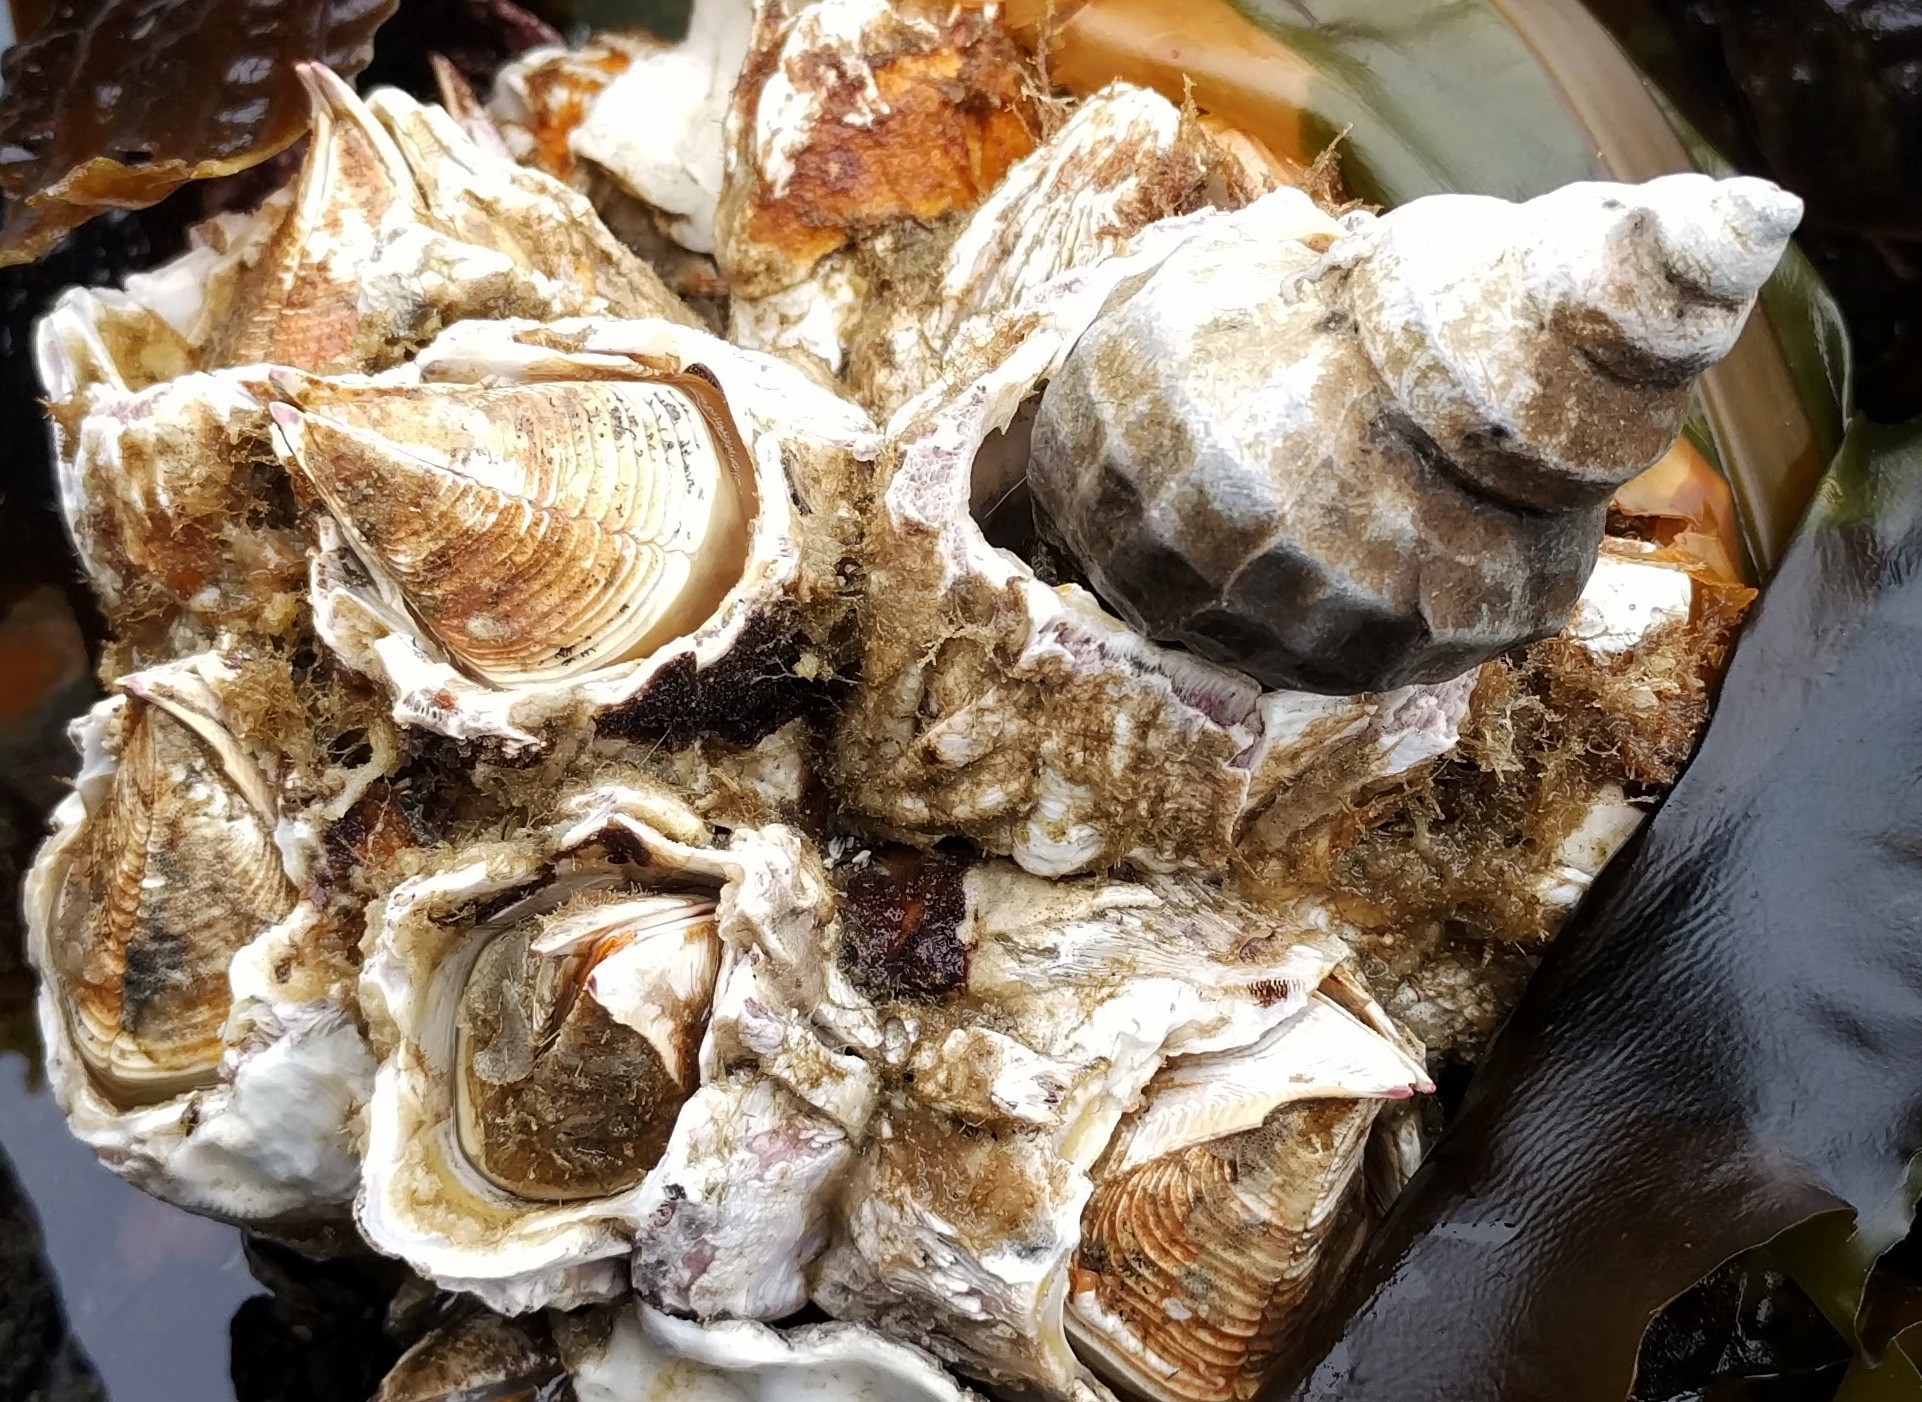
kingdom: Animalia
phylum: Mollusca
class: Gastropoda
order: Neogastropoda
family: Muricidae
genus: Nucella
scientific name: Nucella lamellosa
